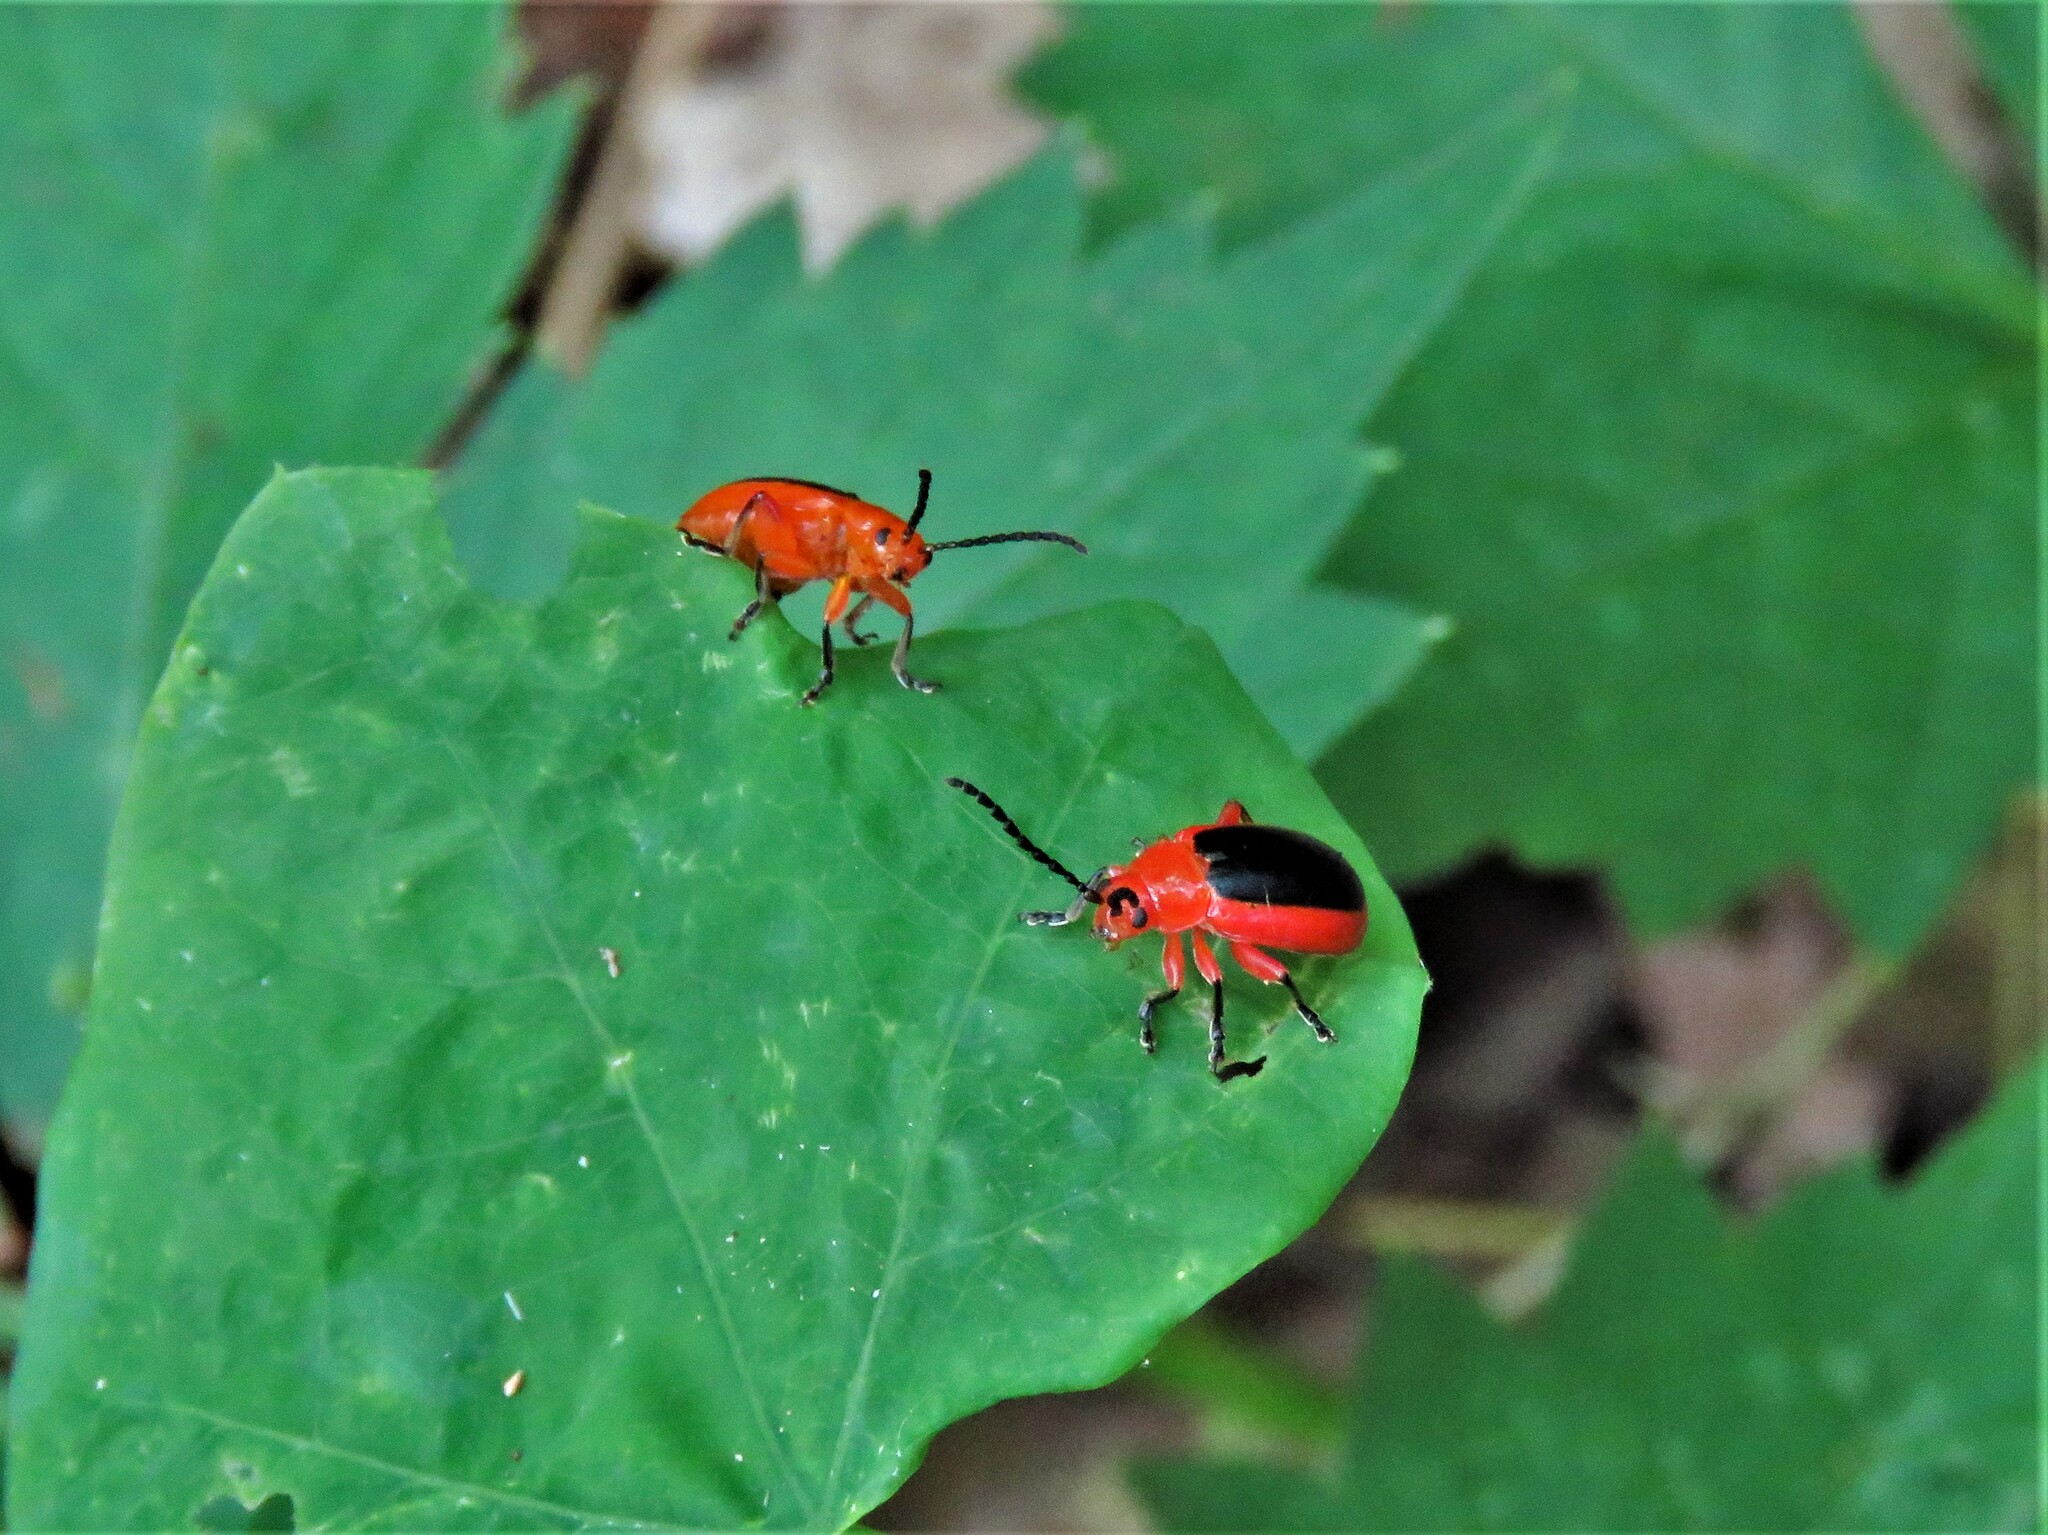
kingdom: Animalia
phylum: Arthropoda
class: Insecta
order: Coleoptera
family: Chrysomelidae
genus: Disonycha
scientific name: Disonycha discoidea
